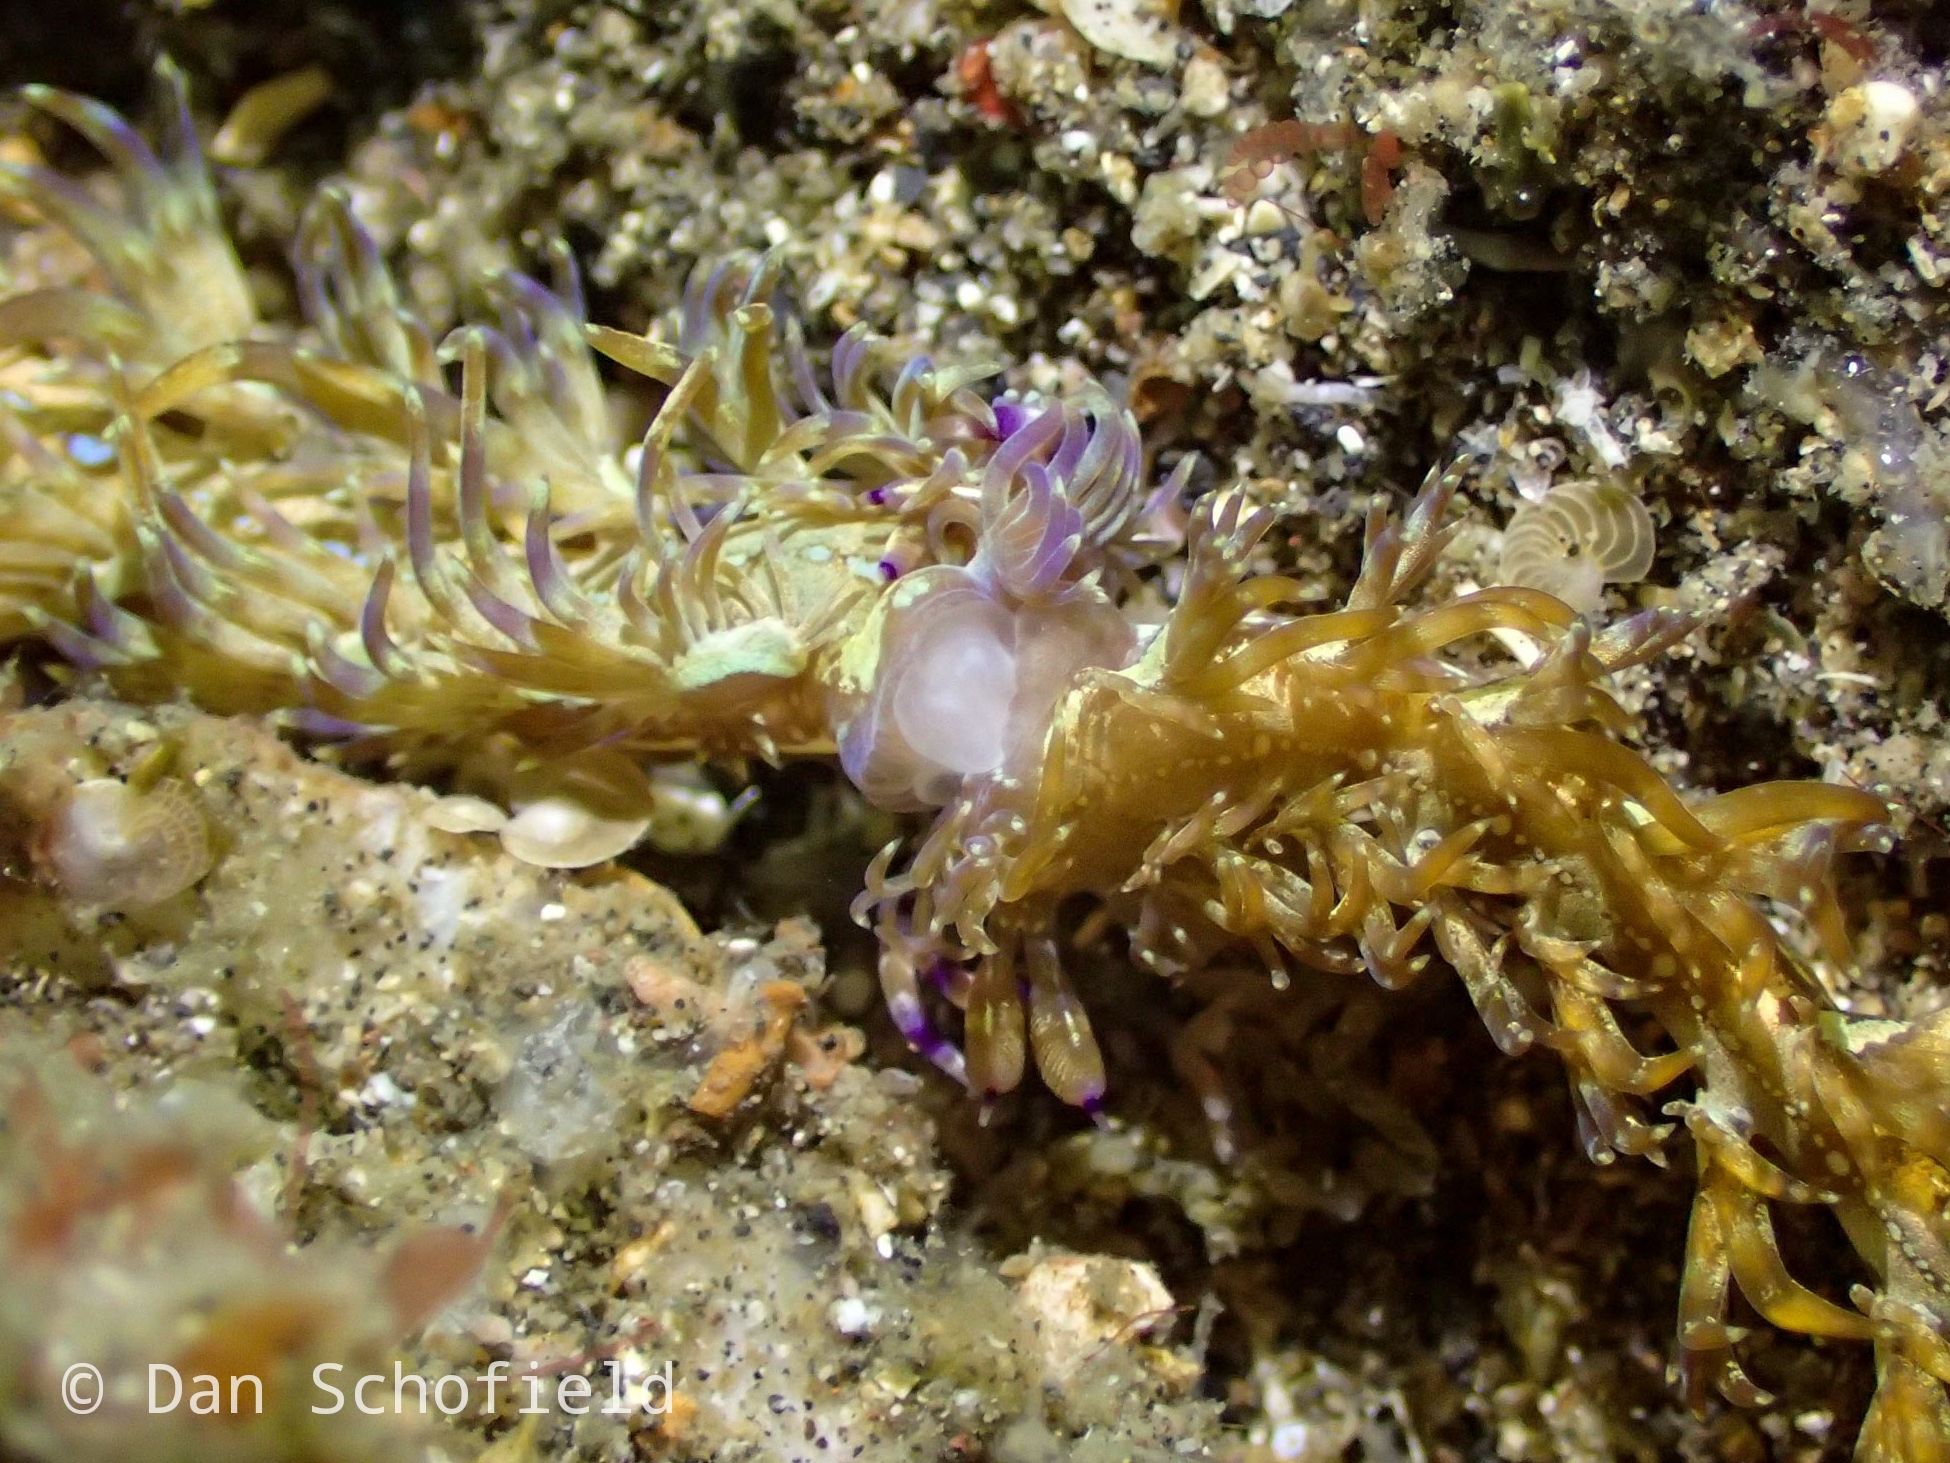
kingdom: Animalia
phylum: Mollusca
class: Gastropoda
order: Nudibranchia
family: Facelinidae
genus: Pteraeolidia
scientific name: Pteraeolidia semperi
